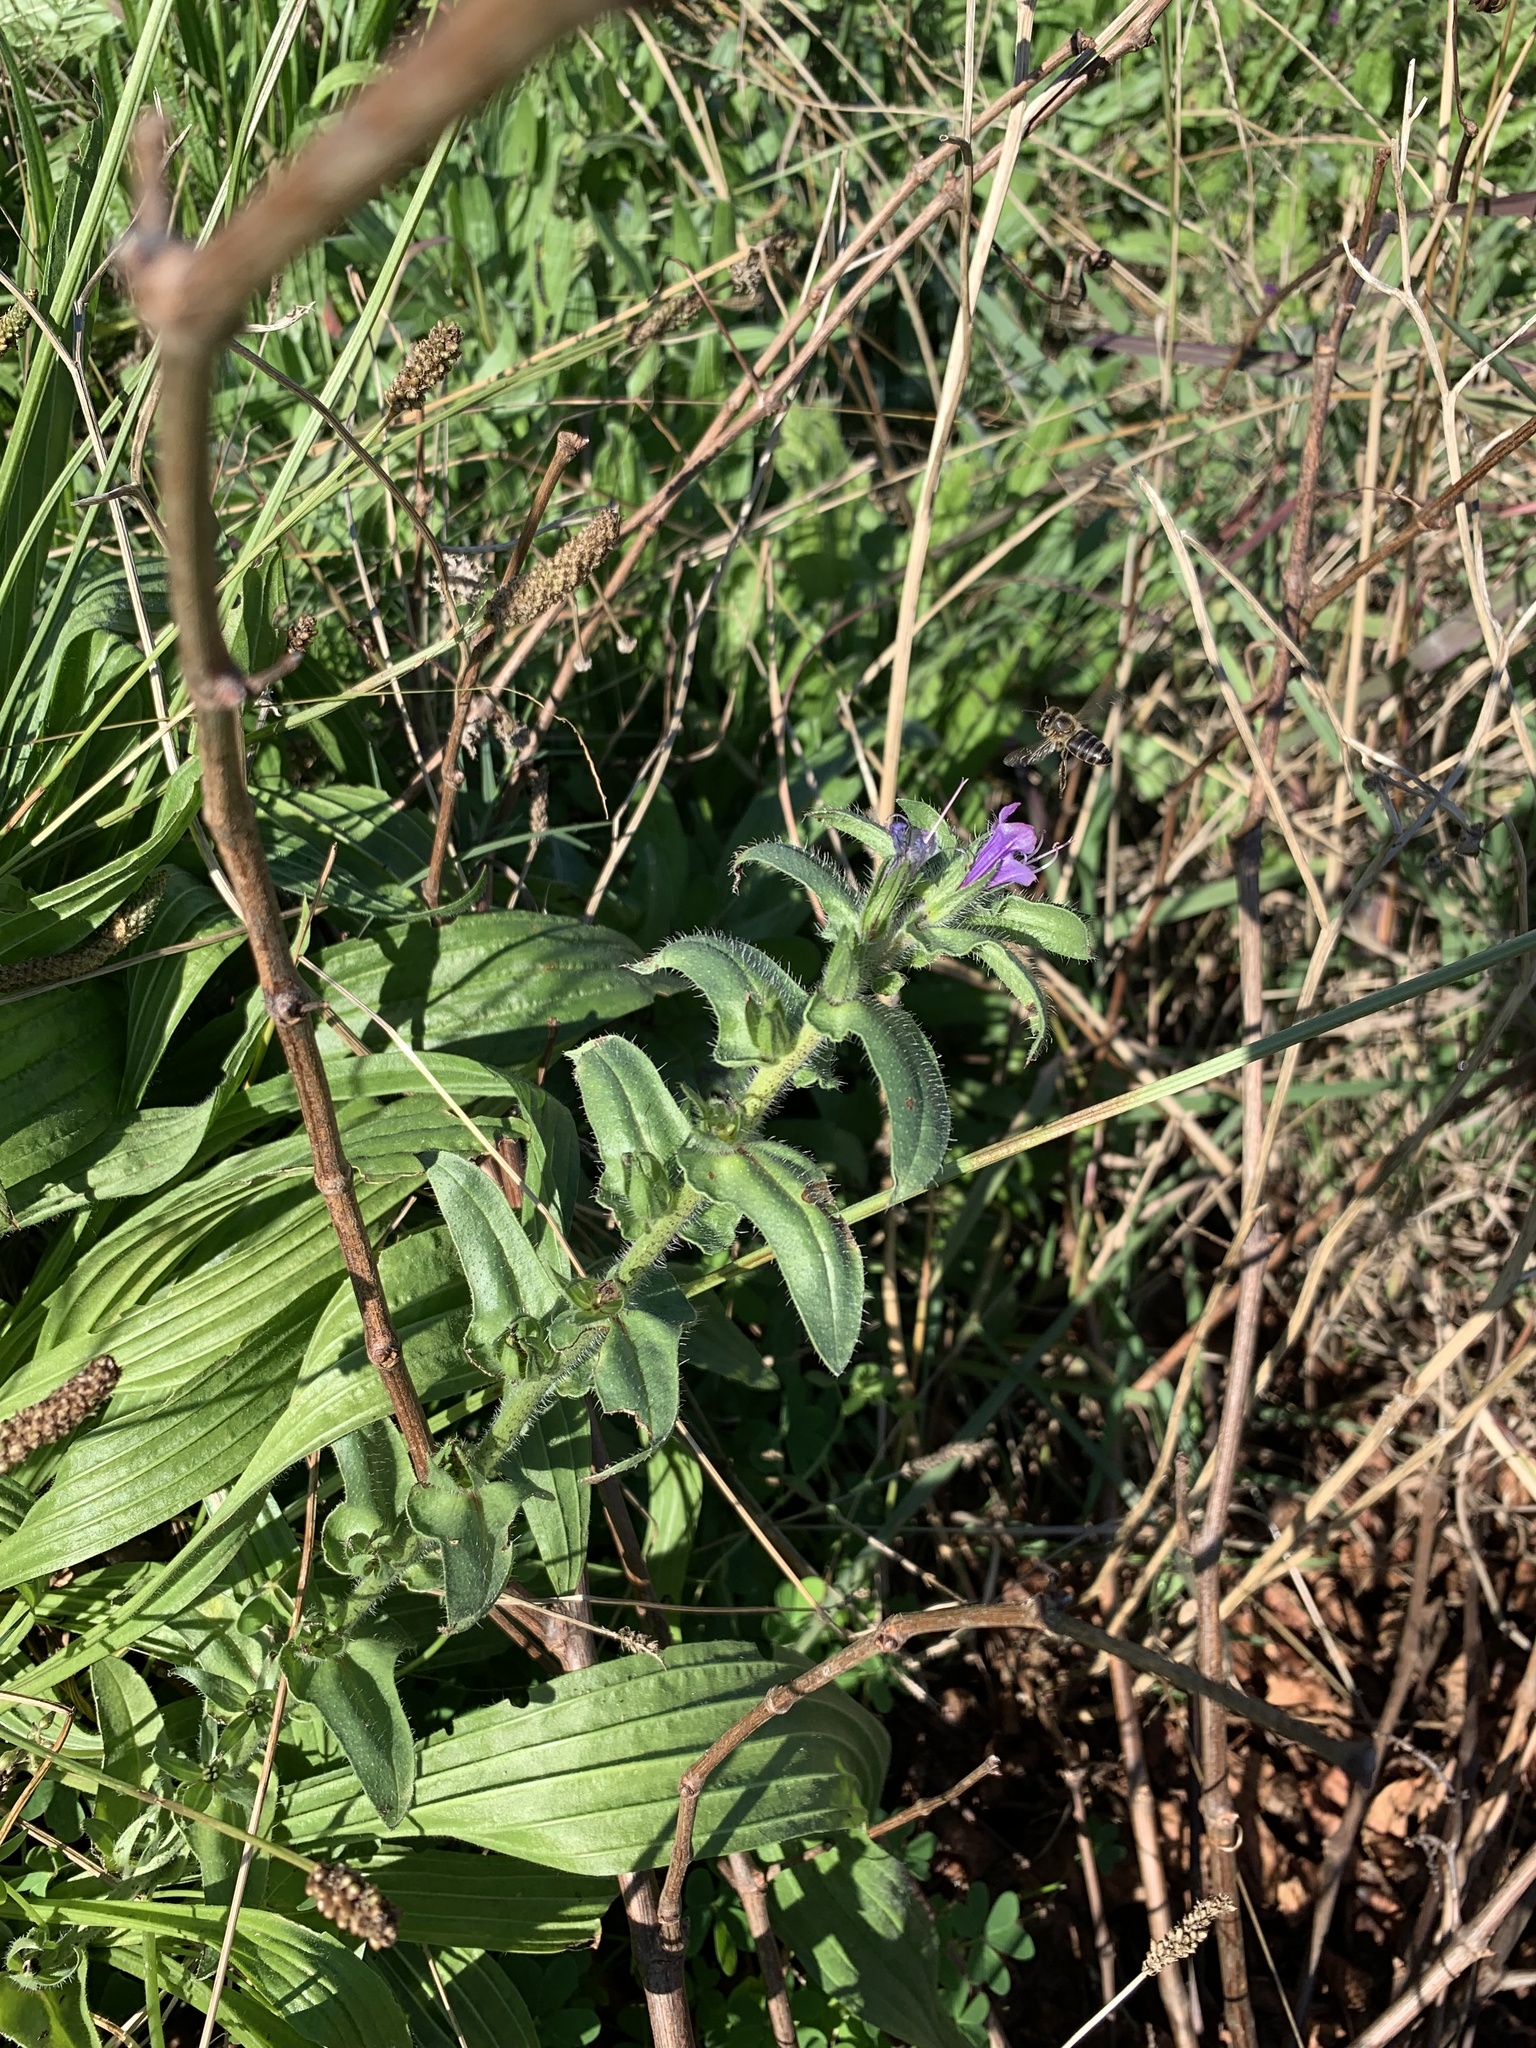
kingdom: Plantae
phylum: Tracheophyta
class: Magnoliopsida
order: Boraginales
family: Boraginaceae
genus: Echium
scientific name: Echium plantagineum
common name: Purple viper's-bugloss
